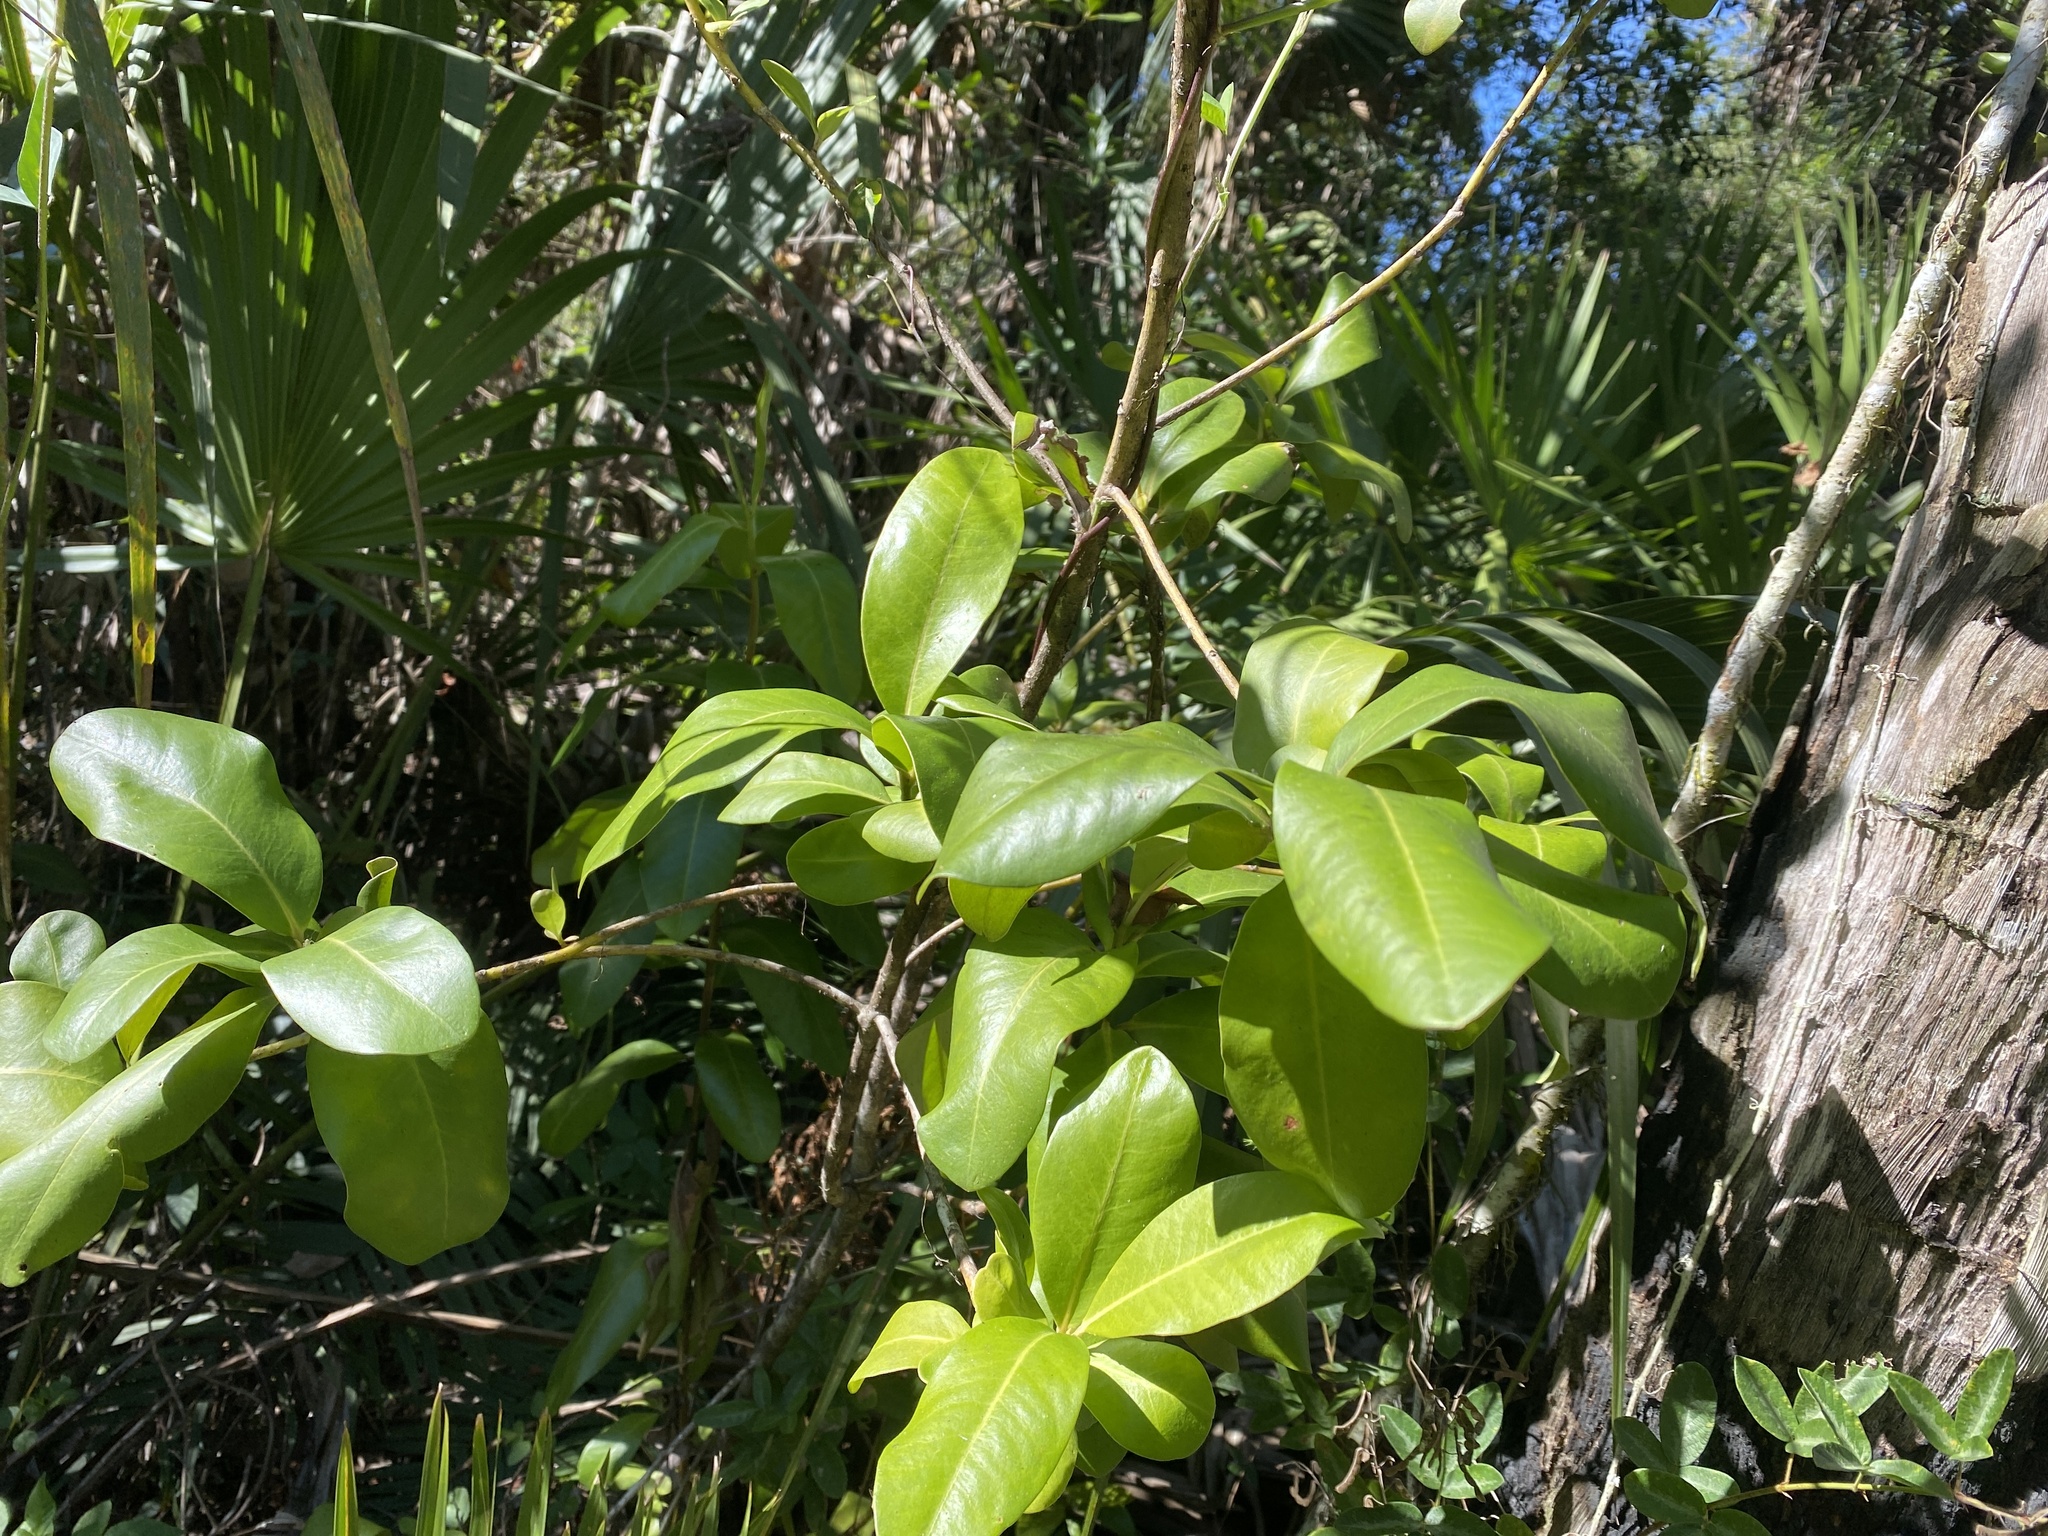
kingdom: Plantae
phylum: Tracheophyta
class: Magnoliopsida
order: Ericales
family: Primulaceae
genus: Myrsine
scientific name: Myrsine floridana
